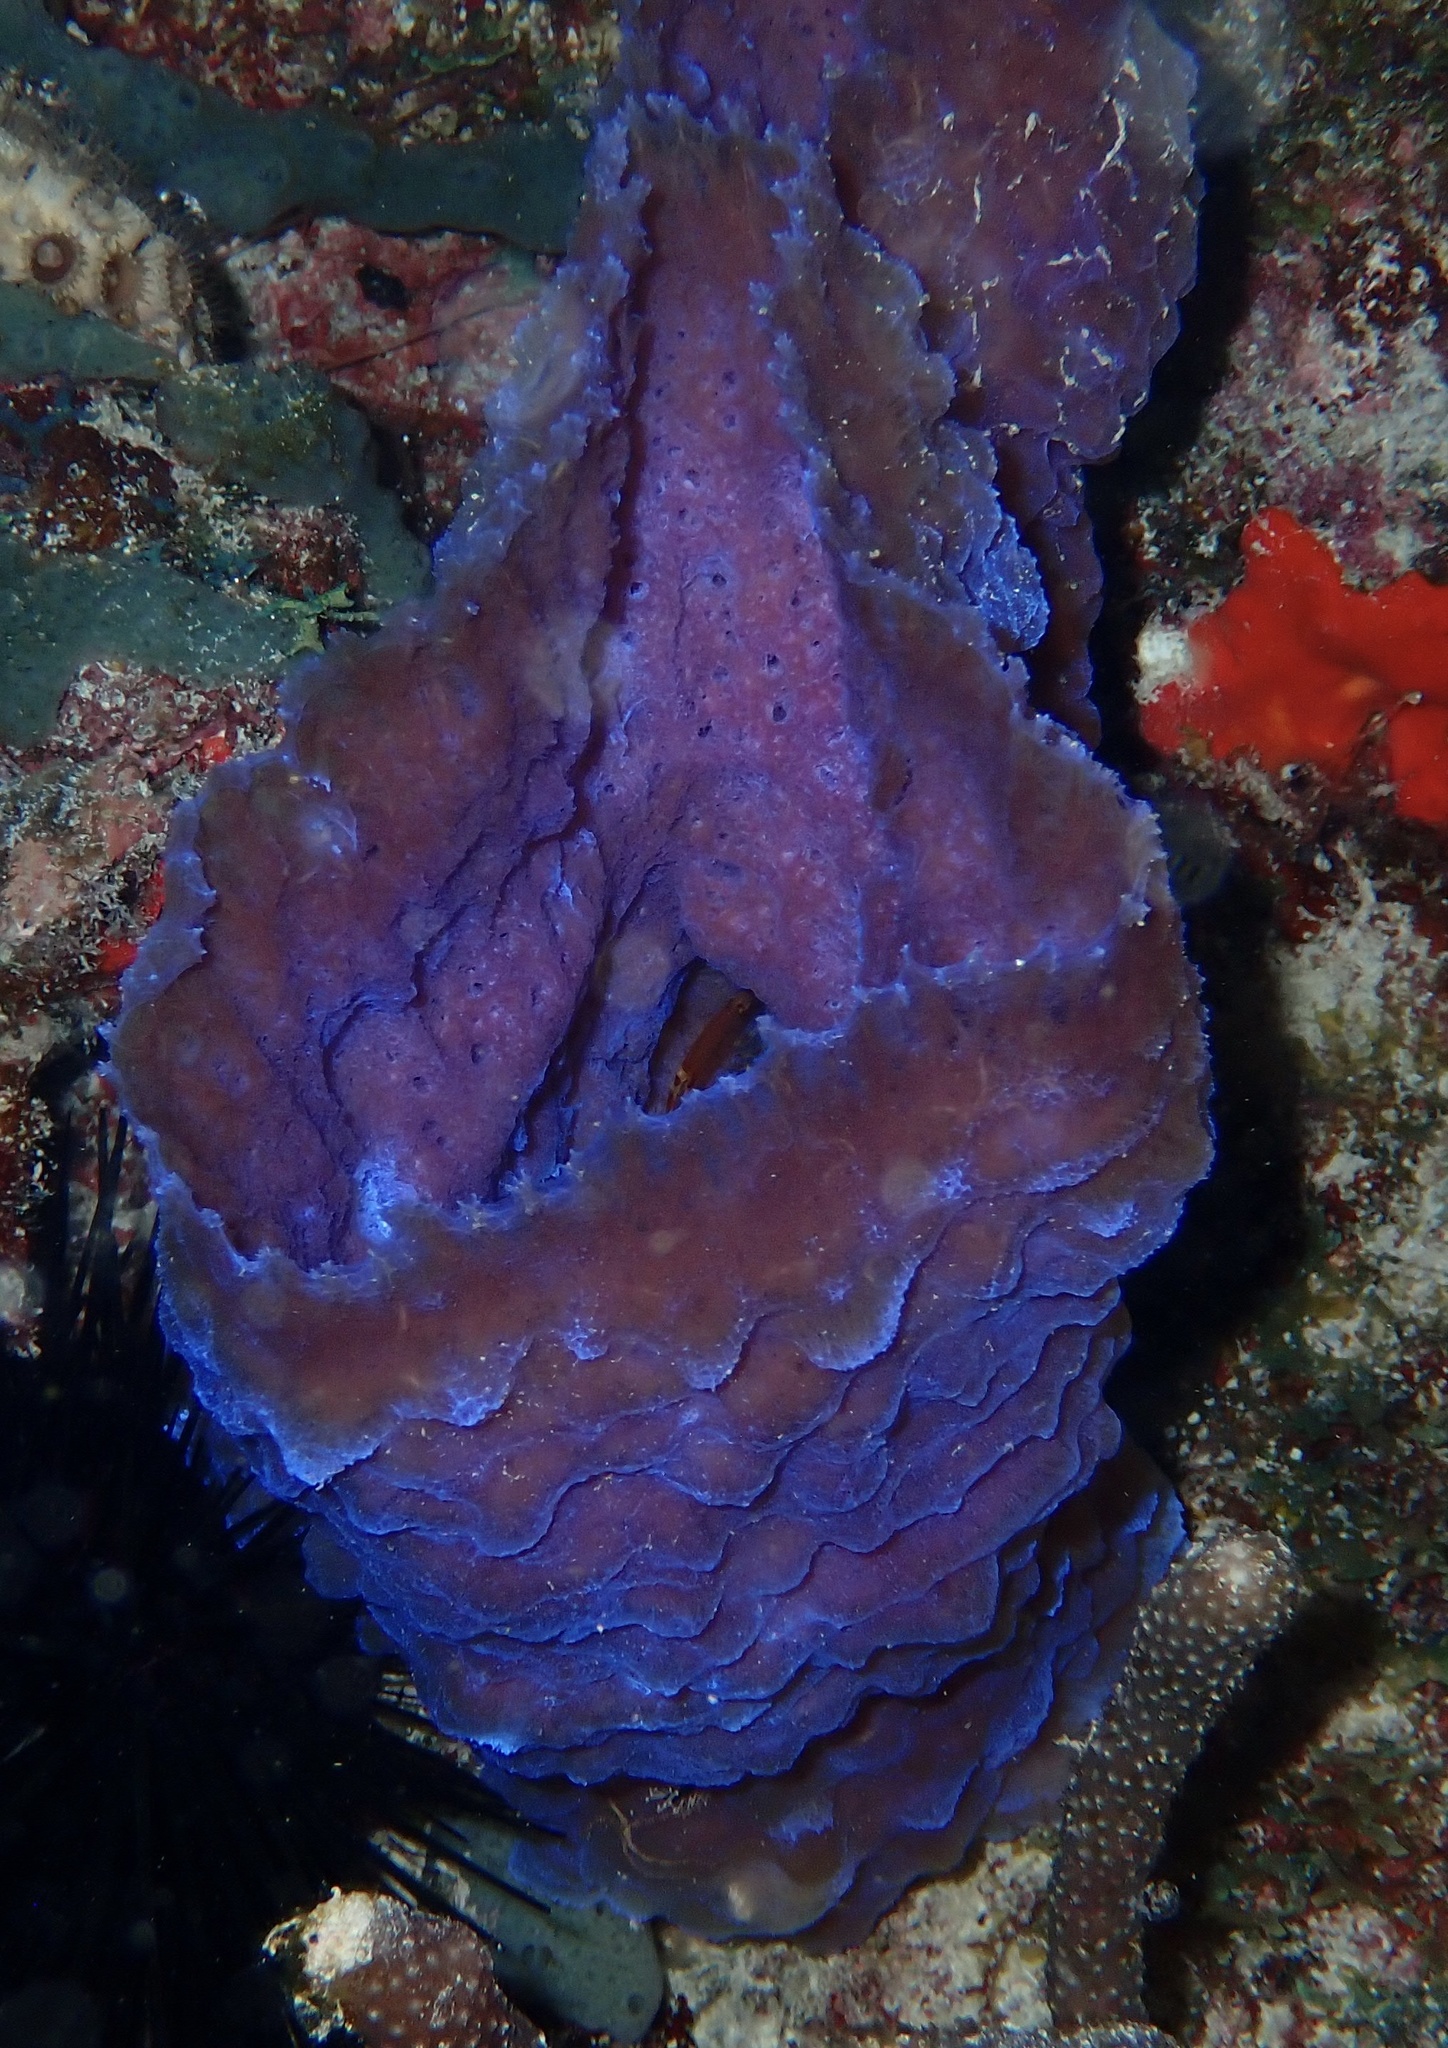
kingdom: Animalia
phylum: Porifera
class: Demospongiae
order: Haplosclerida
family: Callyspongiidae
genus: Callyspongia
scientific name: Callyspongia plicifera
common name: Azure vase sponge
